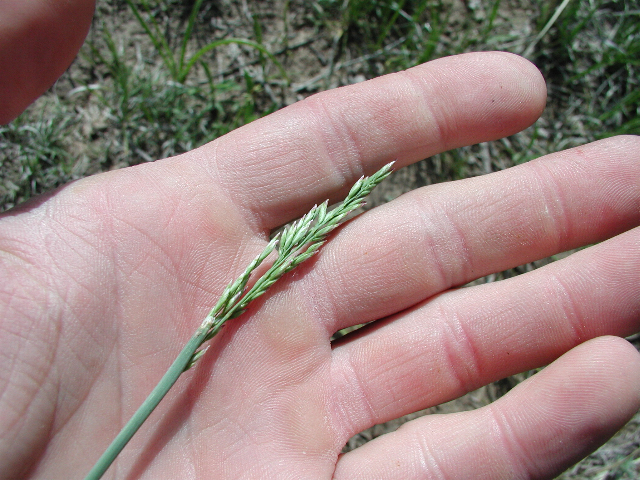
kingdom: Plantae
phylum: Tracheophyta
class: Liliopsida
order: Poales
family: Poaceae
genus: Poa
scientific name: Poa secunda
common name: Sandberg bluegrass
